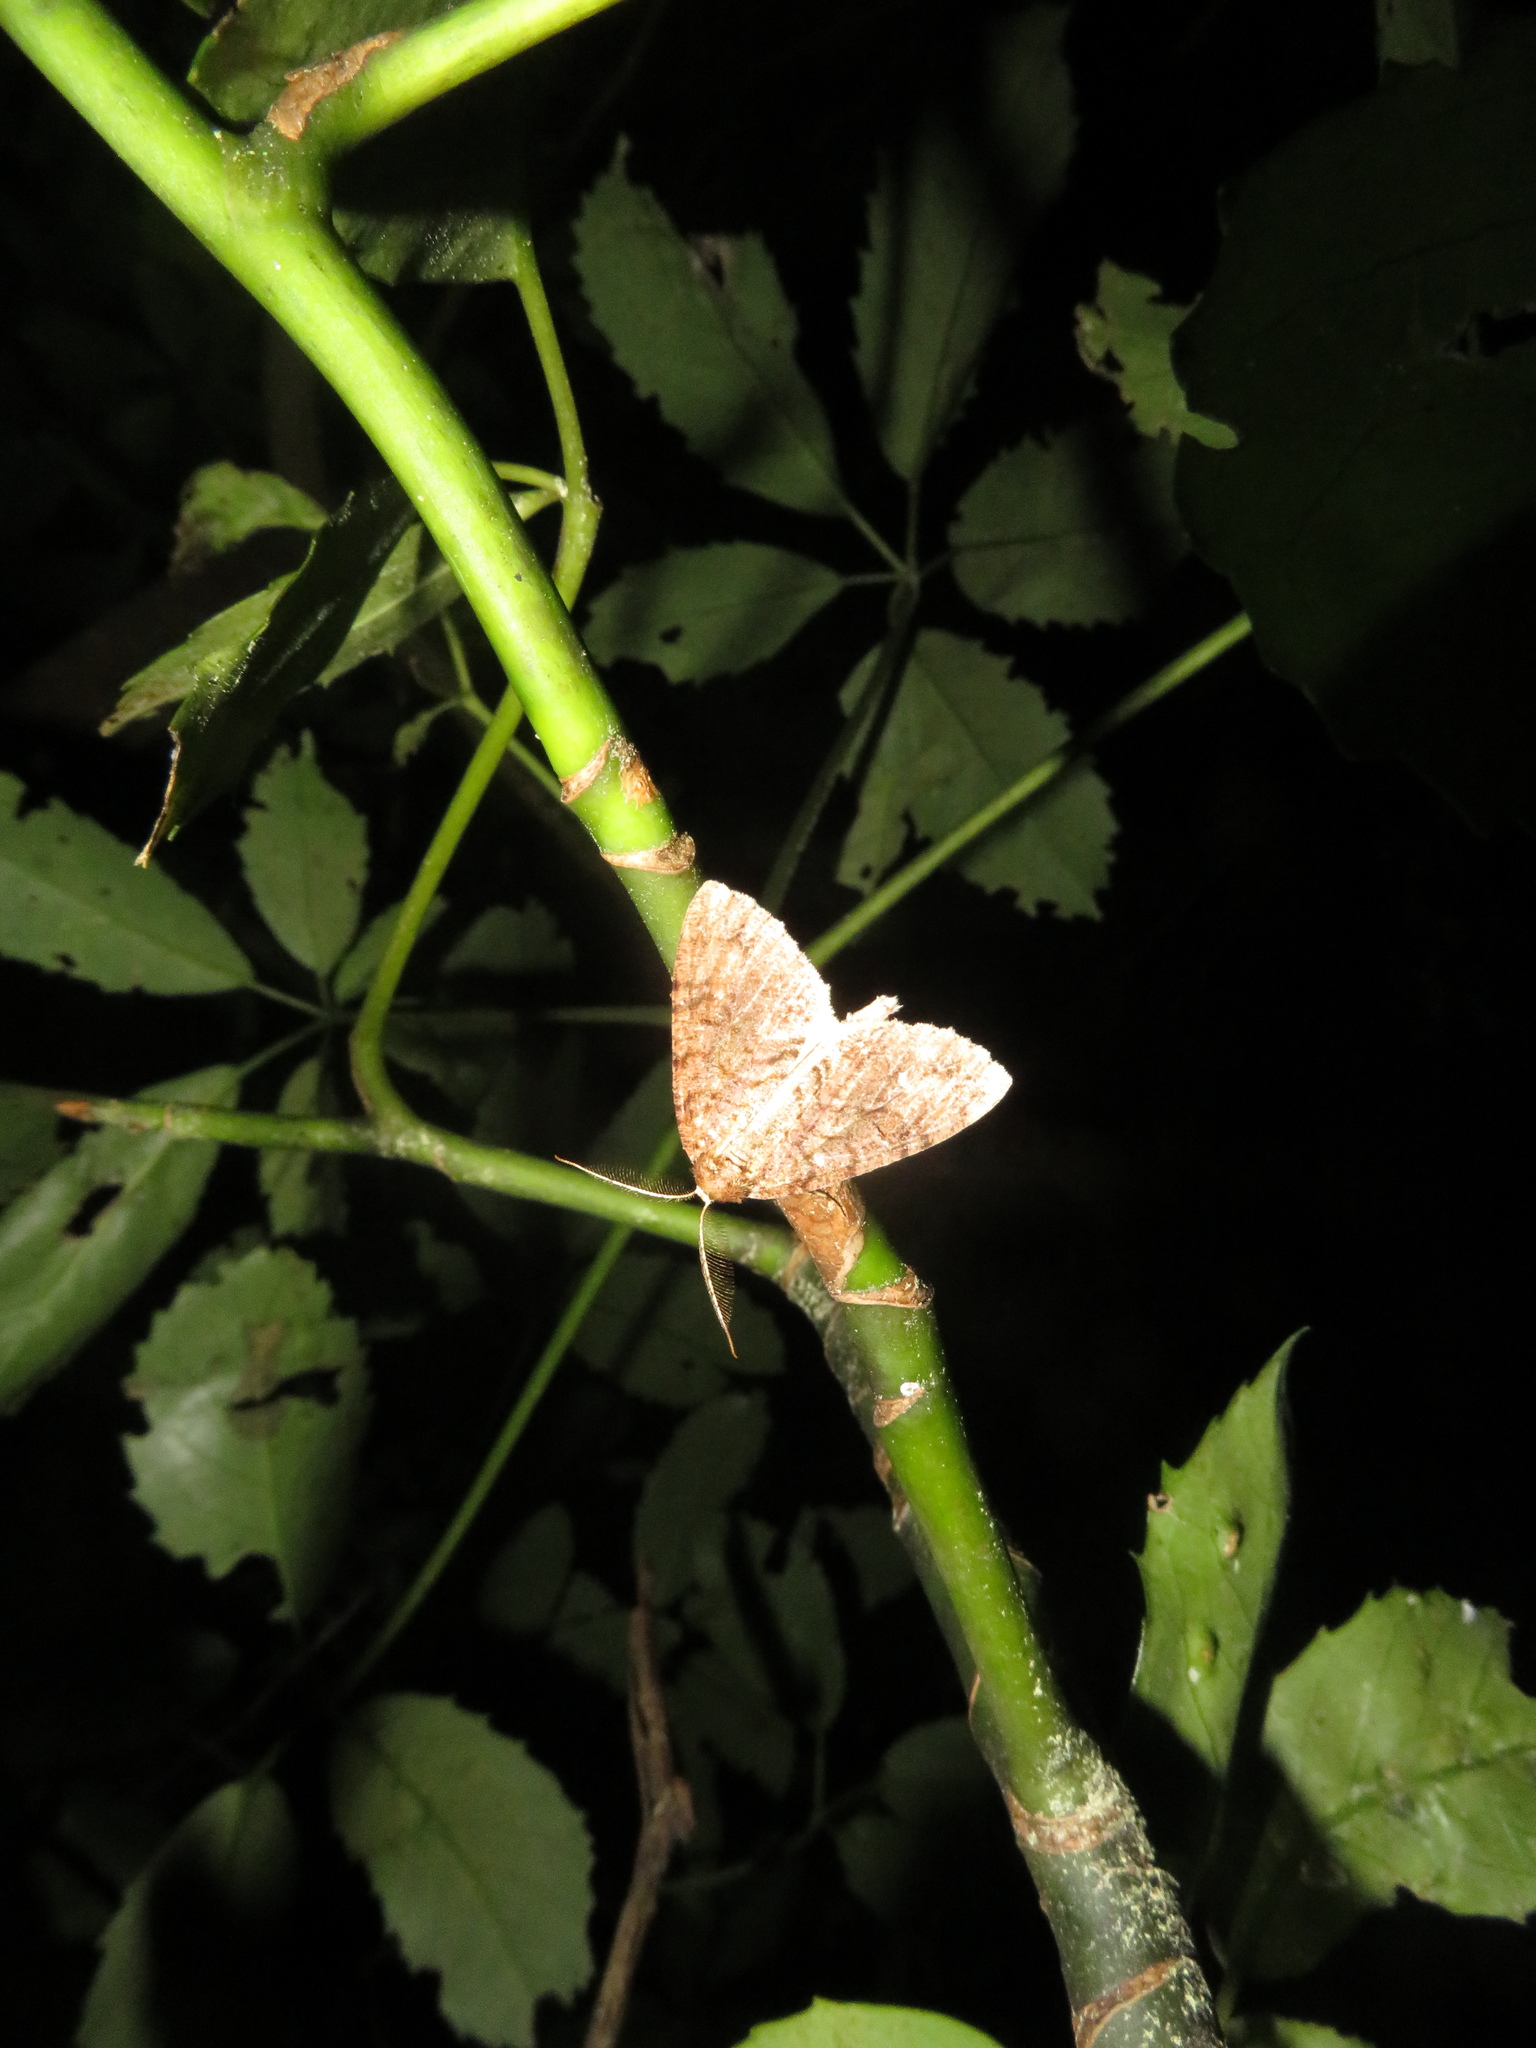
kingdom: Animalia
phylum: Arthropoda
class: Insecta
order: Lepidoptera
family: Geometridae
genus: Pseudocoremia
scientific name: Pseudocoremia suavis
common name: Common forest looper
